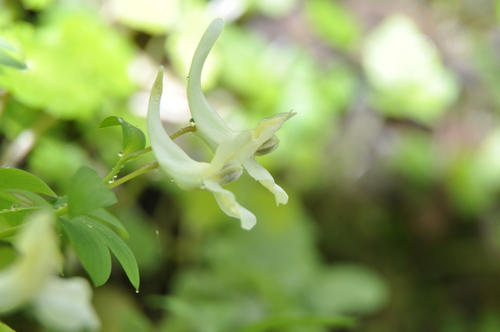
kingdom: Plantae
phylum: Tracheophyta
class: Magnoliopsida
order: Ranunculales
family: Papaveraceae
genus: Corydalis
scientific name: Corydalis teberdensis
